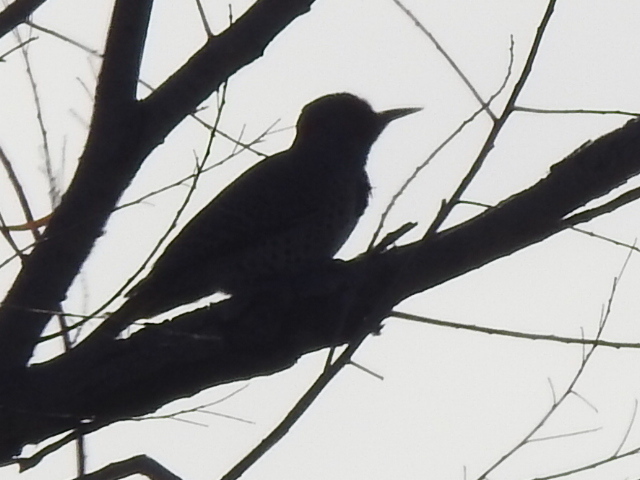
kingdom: Animalia
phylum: Chordata
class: Aves
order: Piciformes
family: Picidae
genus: Colaptes
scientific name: Colaptes auratus
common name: Northern flicker
